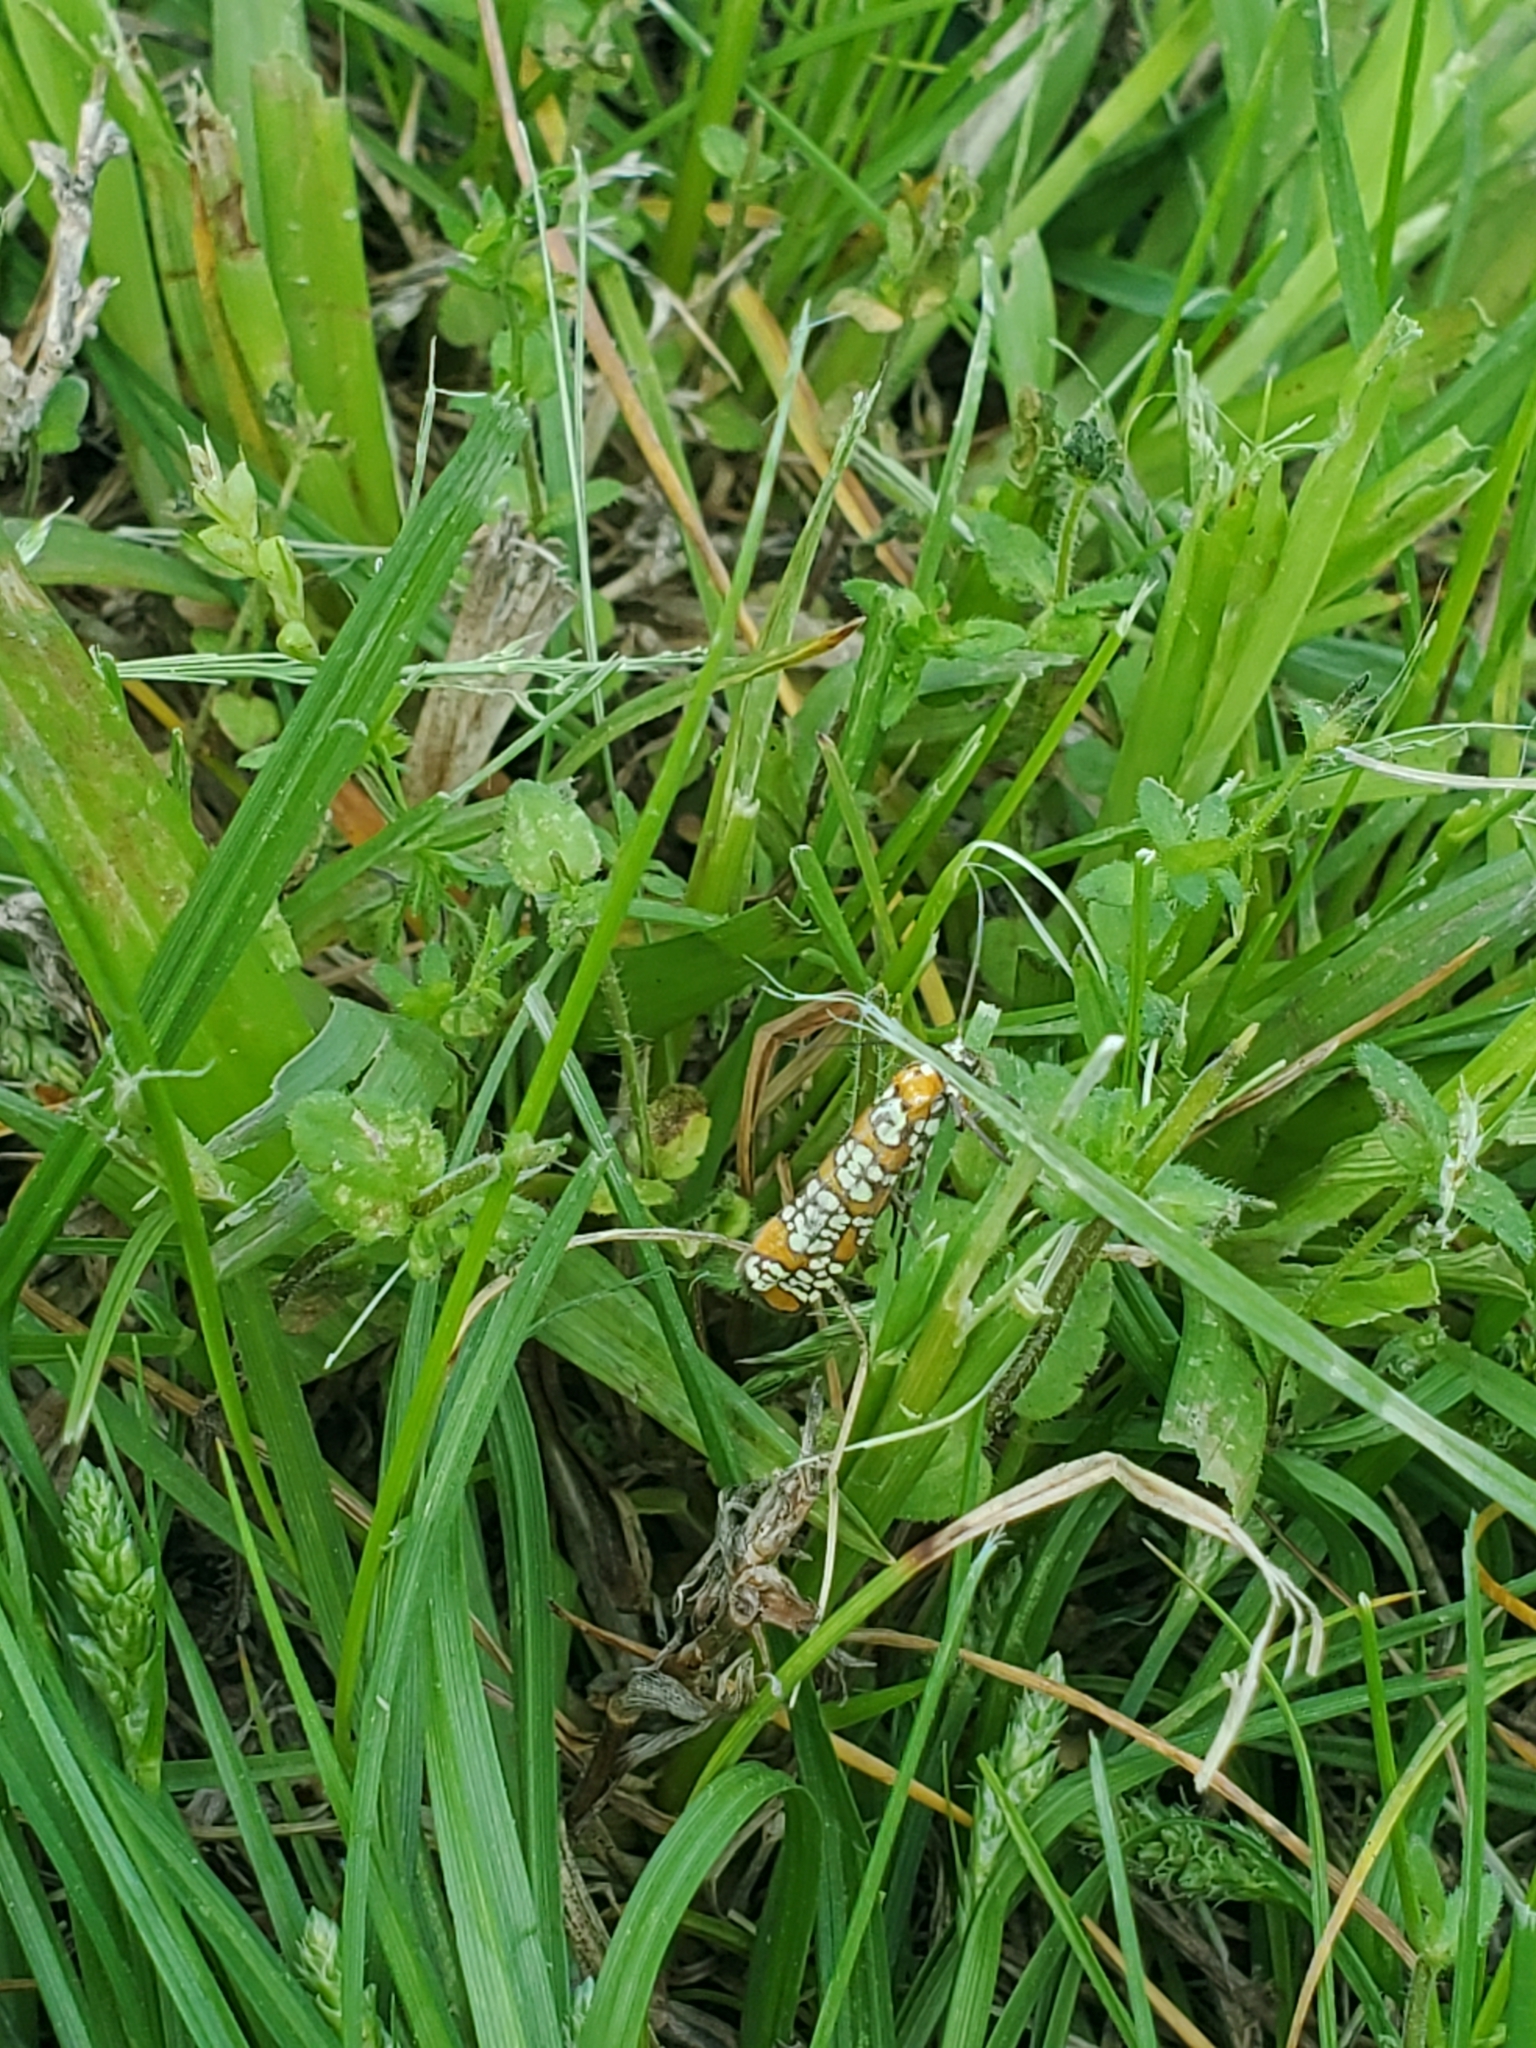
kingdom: Animalia
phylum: Arthropoda
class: Insecta
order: Lepidoptera
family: Attevidae
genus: Atteva
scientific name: Atteva punctella
